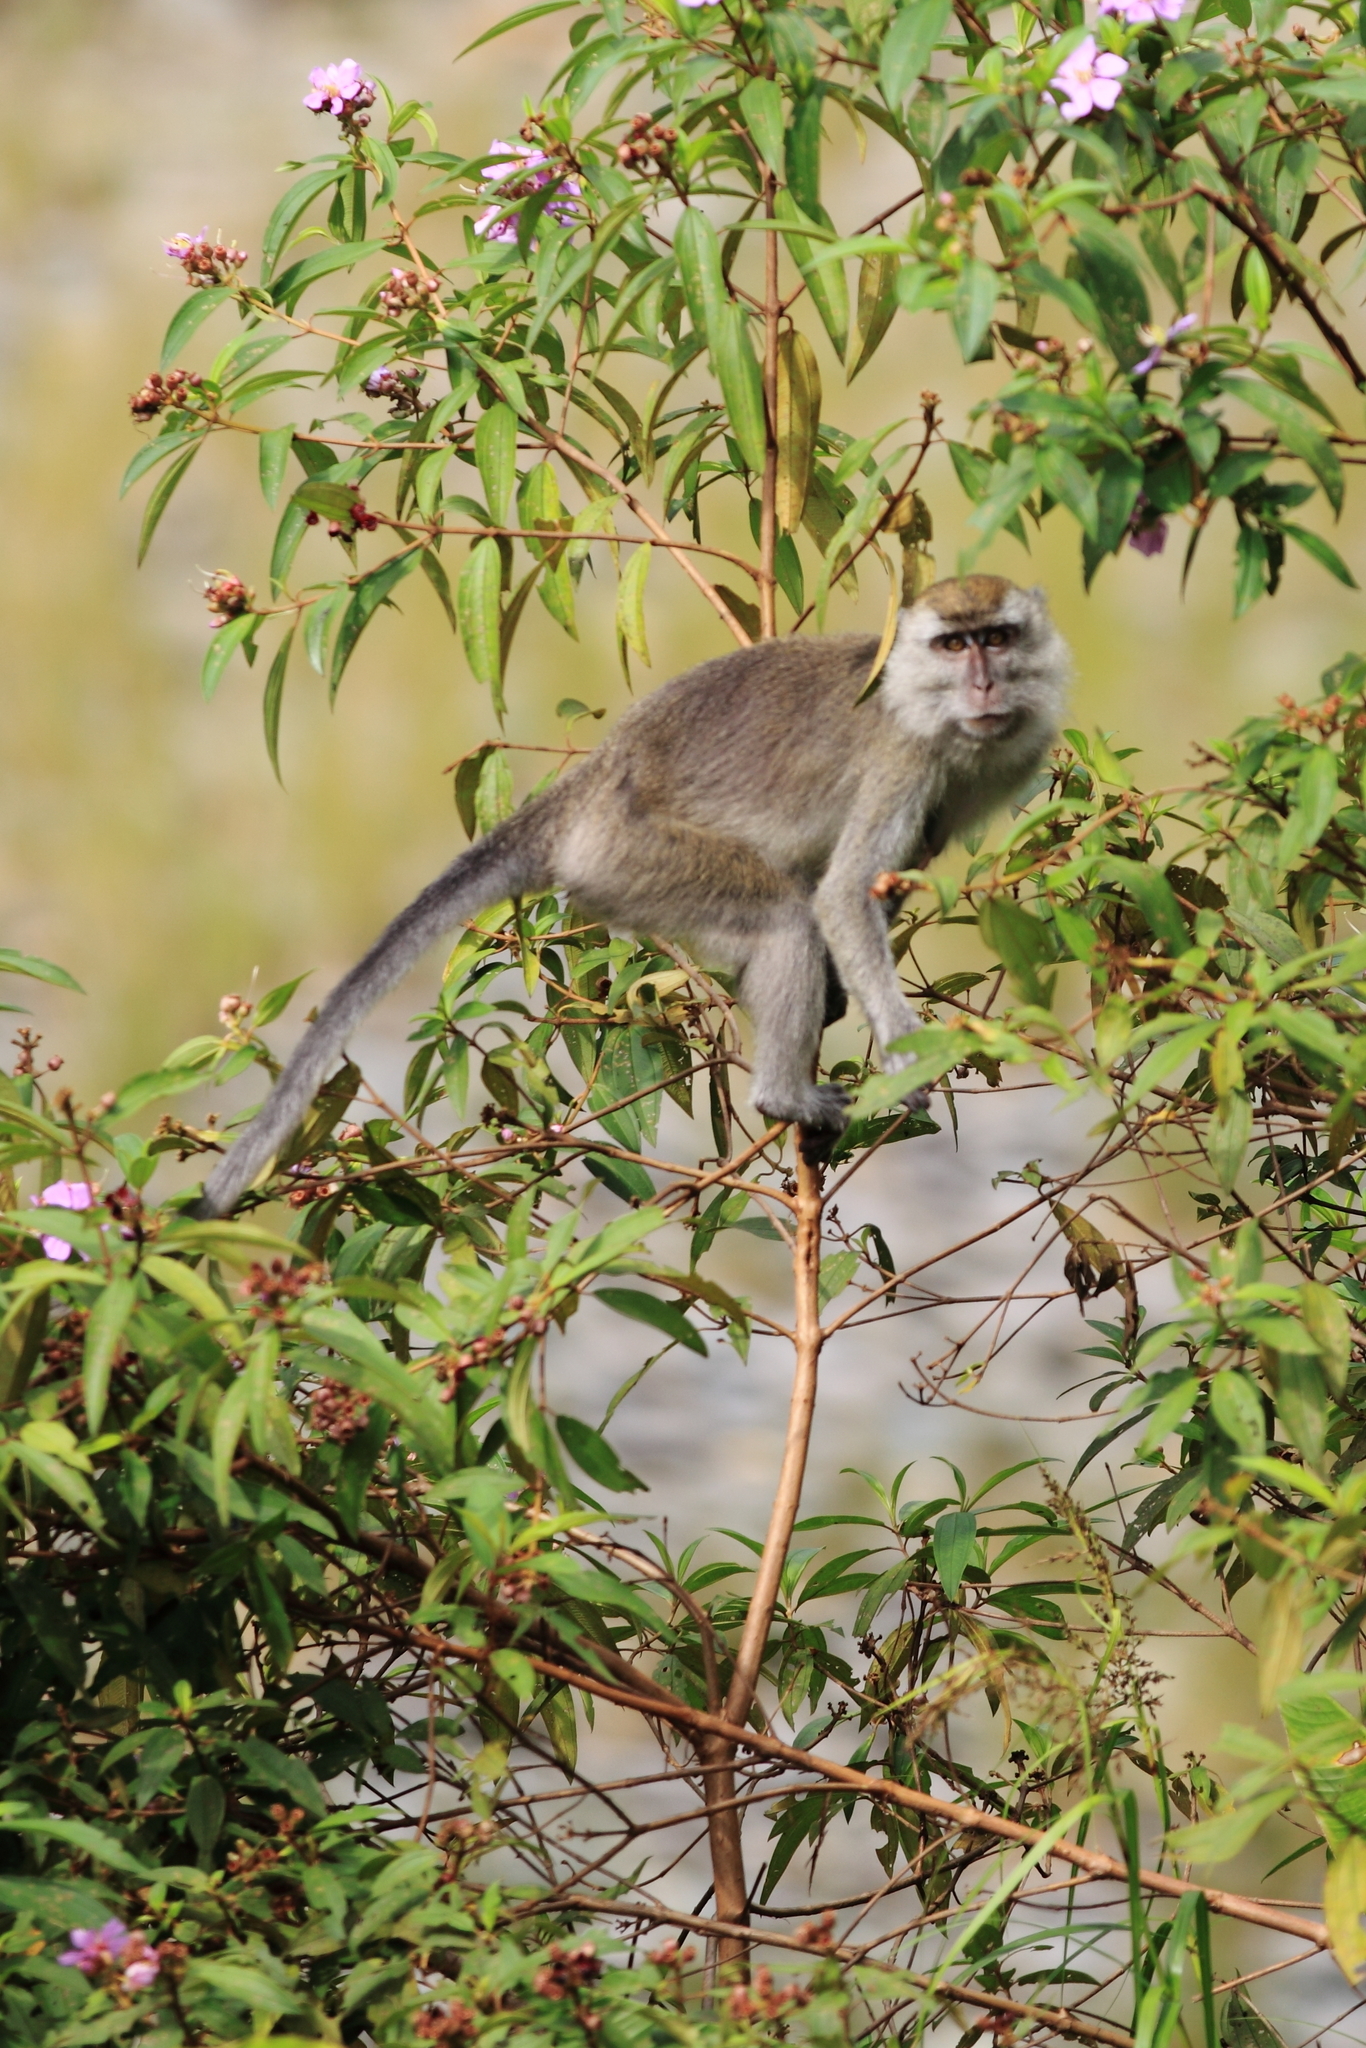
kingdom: Animalia
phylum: Chordata
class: Mammalia
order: Primates
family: Cercopithecidae
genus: Macaca
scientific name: Macaca fascicularis
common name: Crab-eating macaque
